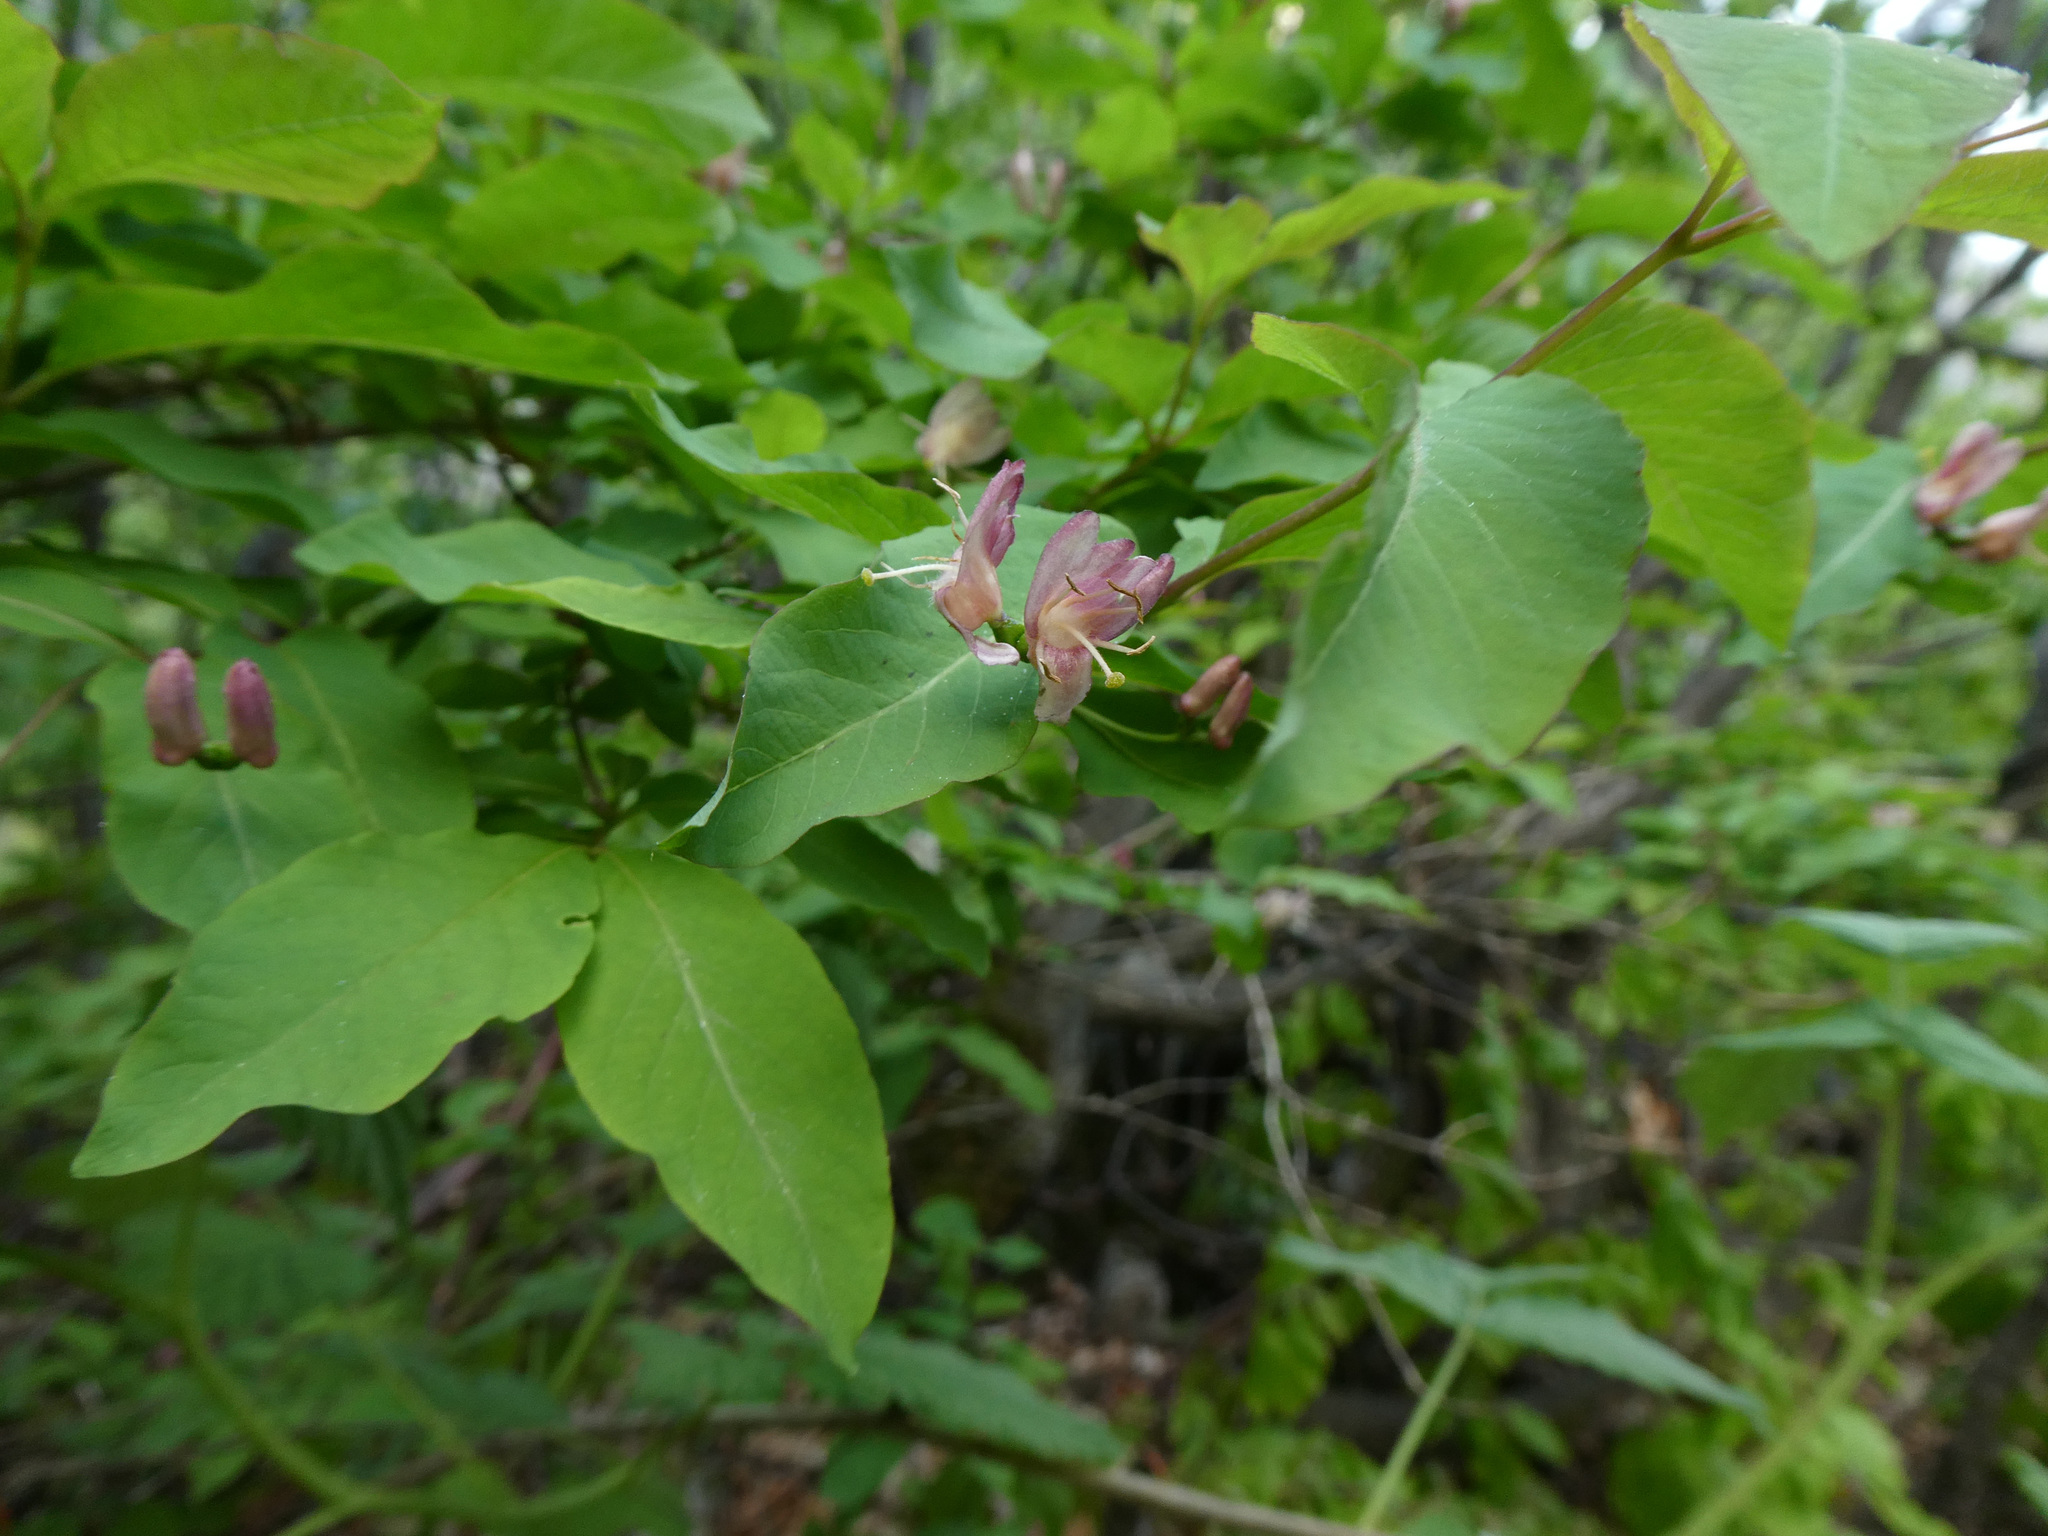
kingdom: Plantae
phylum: Tracheophyta
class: Magnoliopsida
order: Dipsacales
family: Caprifoliaceae
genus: Lonicera
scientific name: Lonicera nigra
